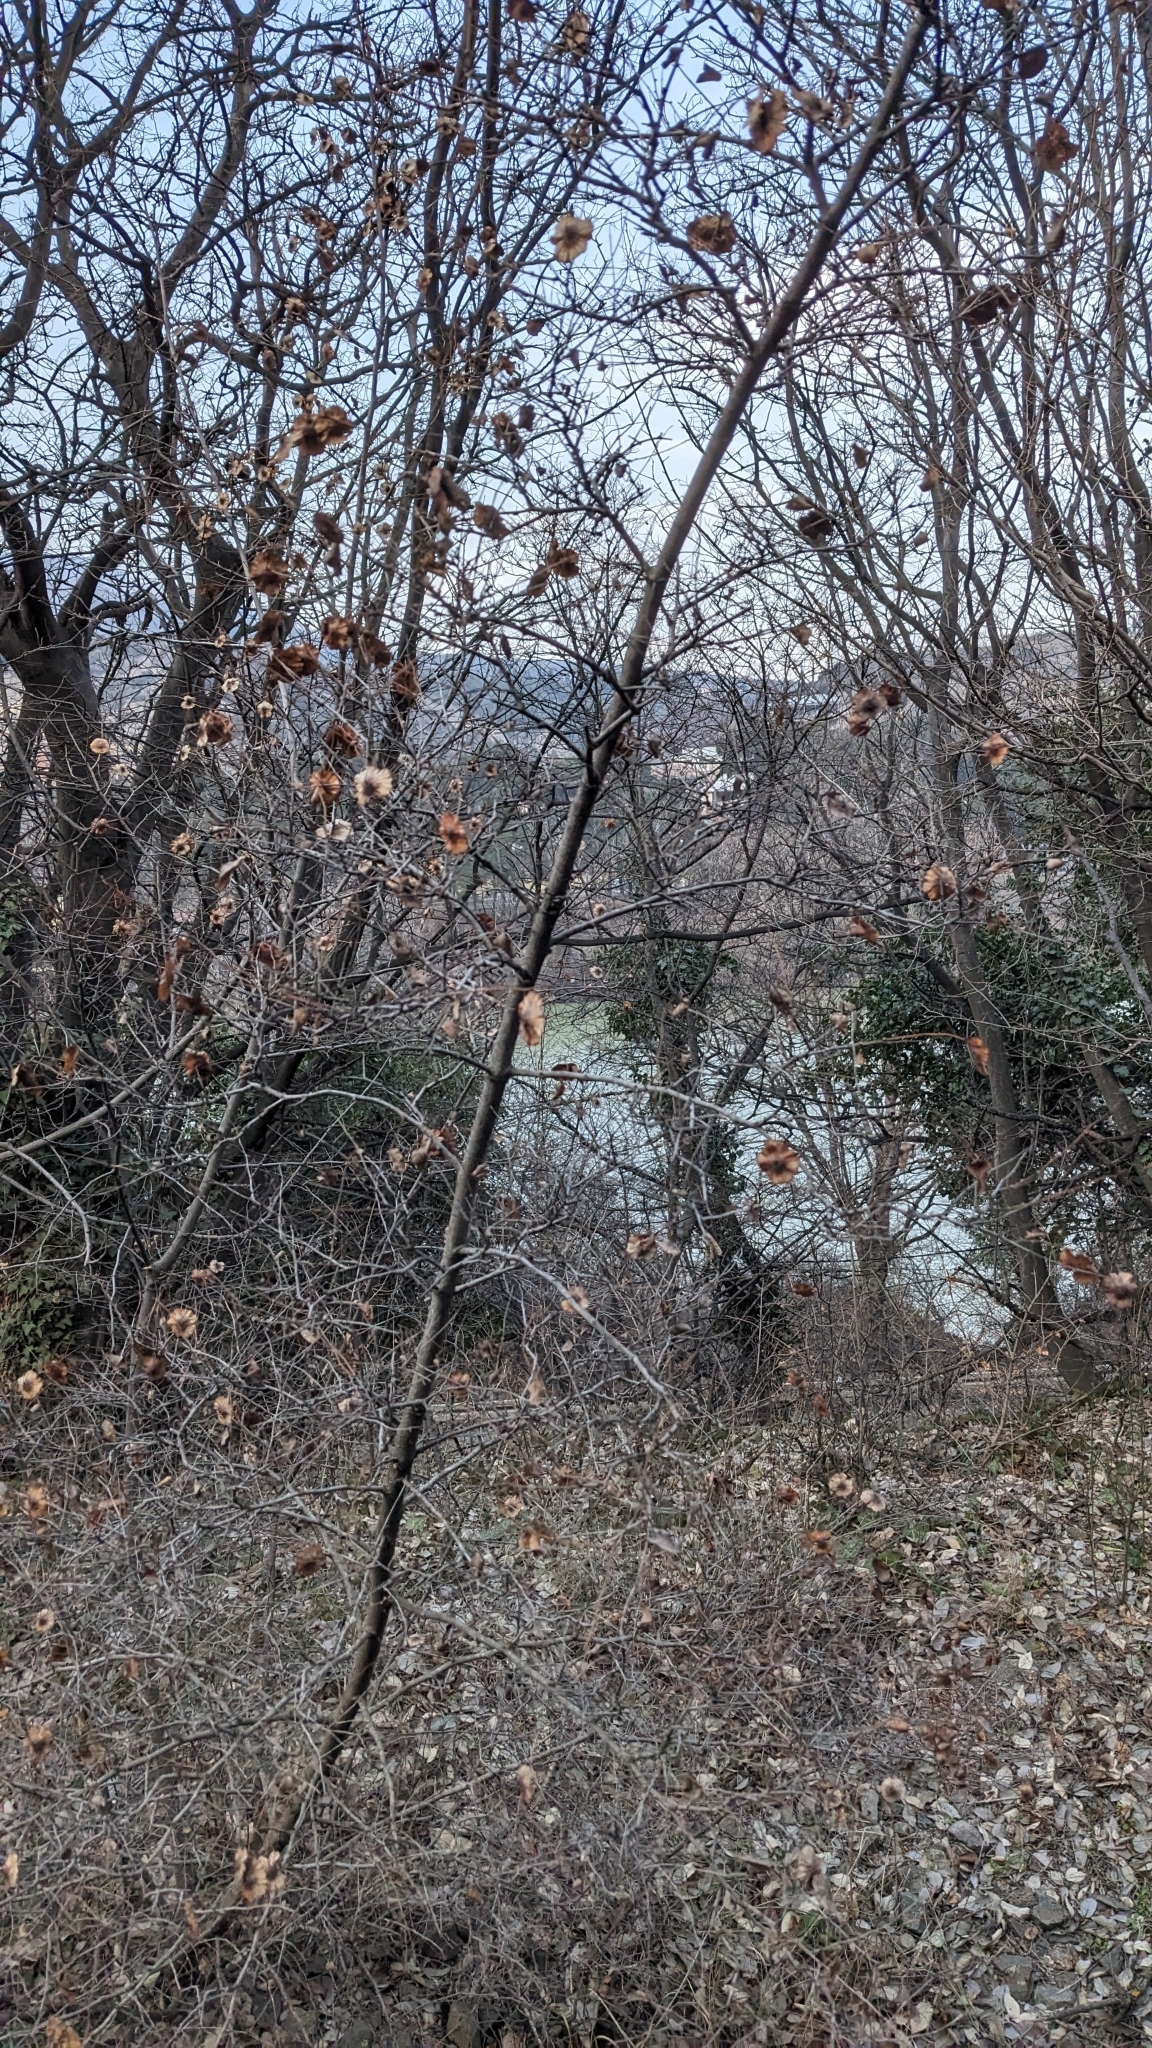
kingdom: Plantae
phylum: Tracheophyta
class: Magnoliopsida
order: Rosales
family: Rhamnaceae
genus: Paliurus
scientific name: Paliurus spina-christi
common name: Jeruselem thorn
